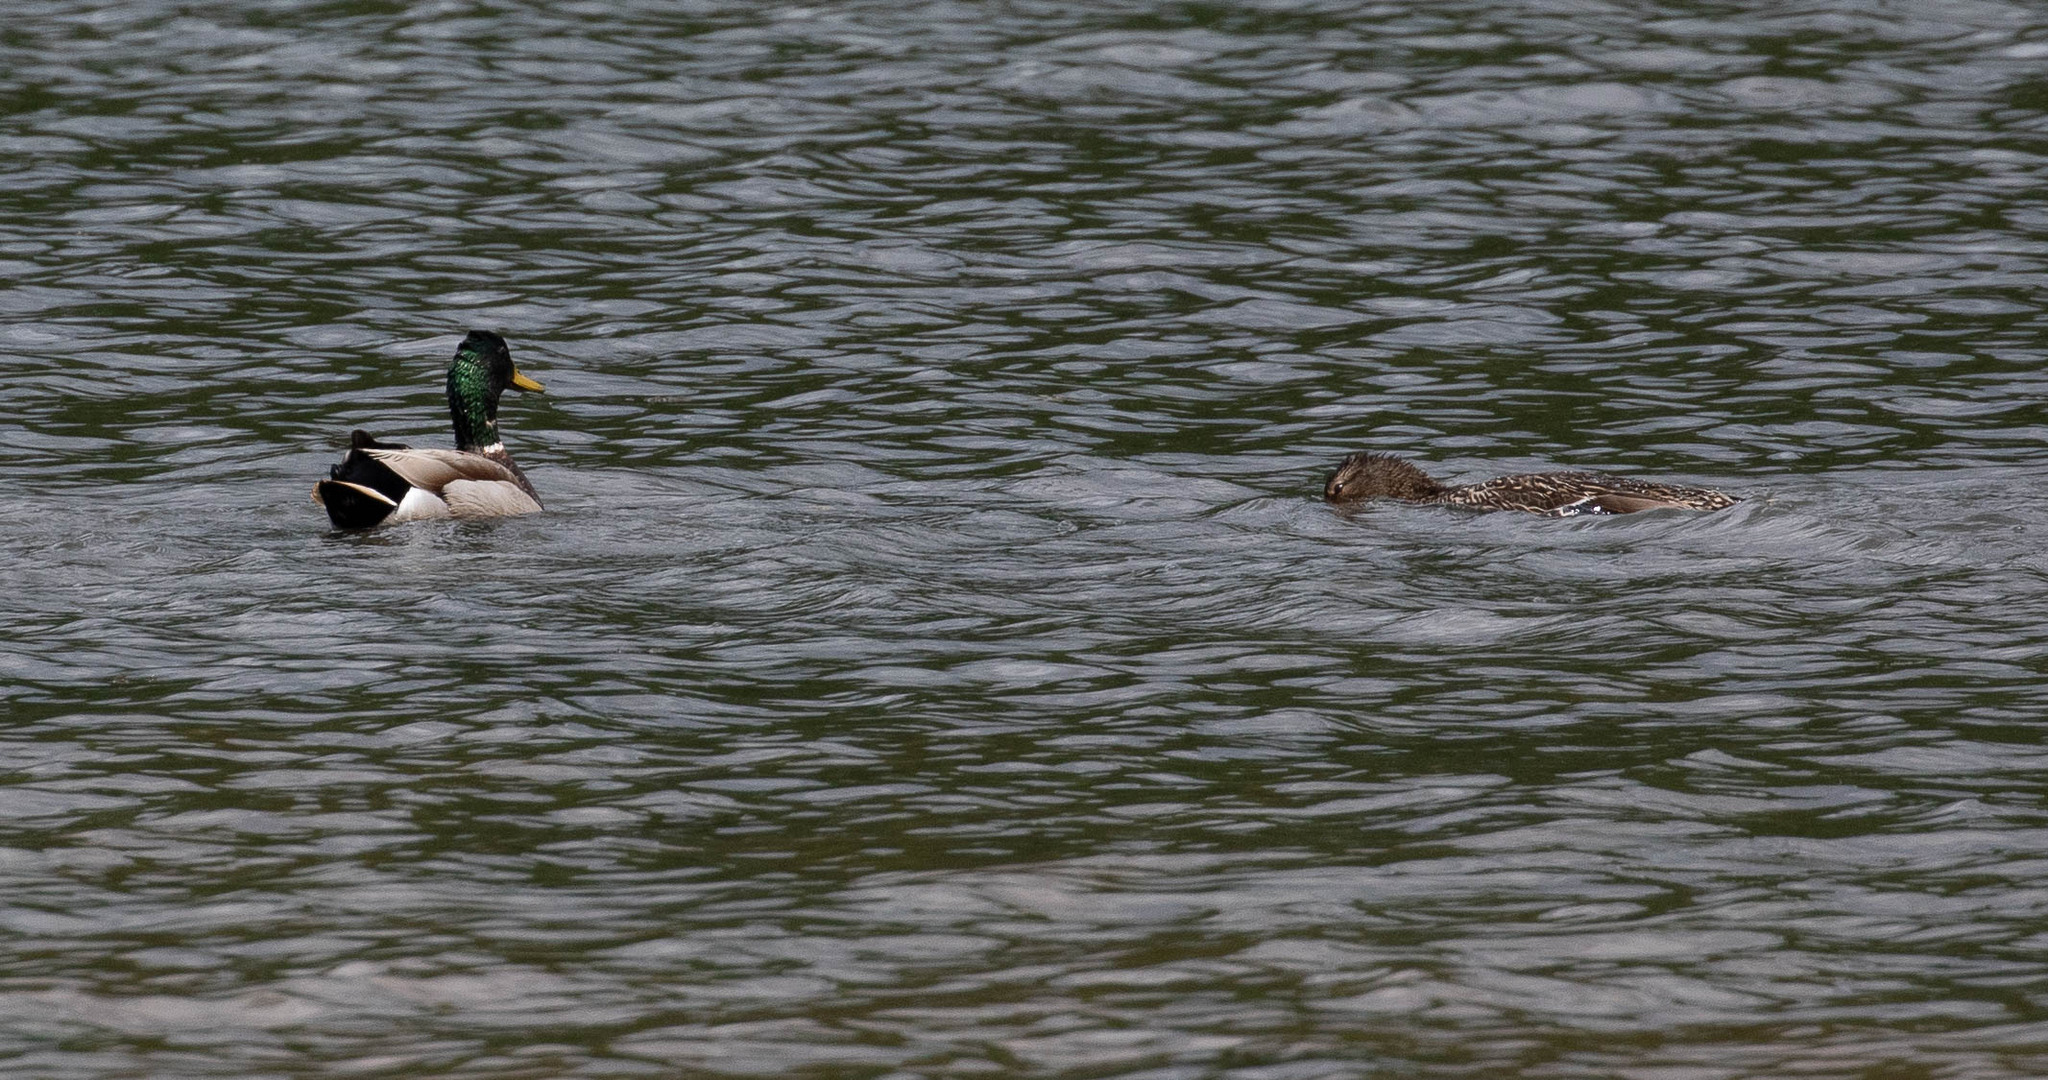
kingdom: Animalia
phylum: Chordata
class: Aves
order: Anseriformes
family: Anatidae
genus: Anas
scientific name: Anas platyrhynchos
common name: Mallard
